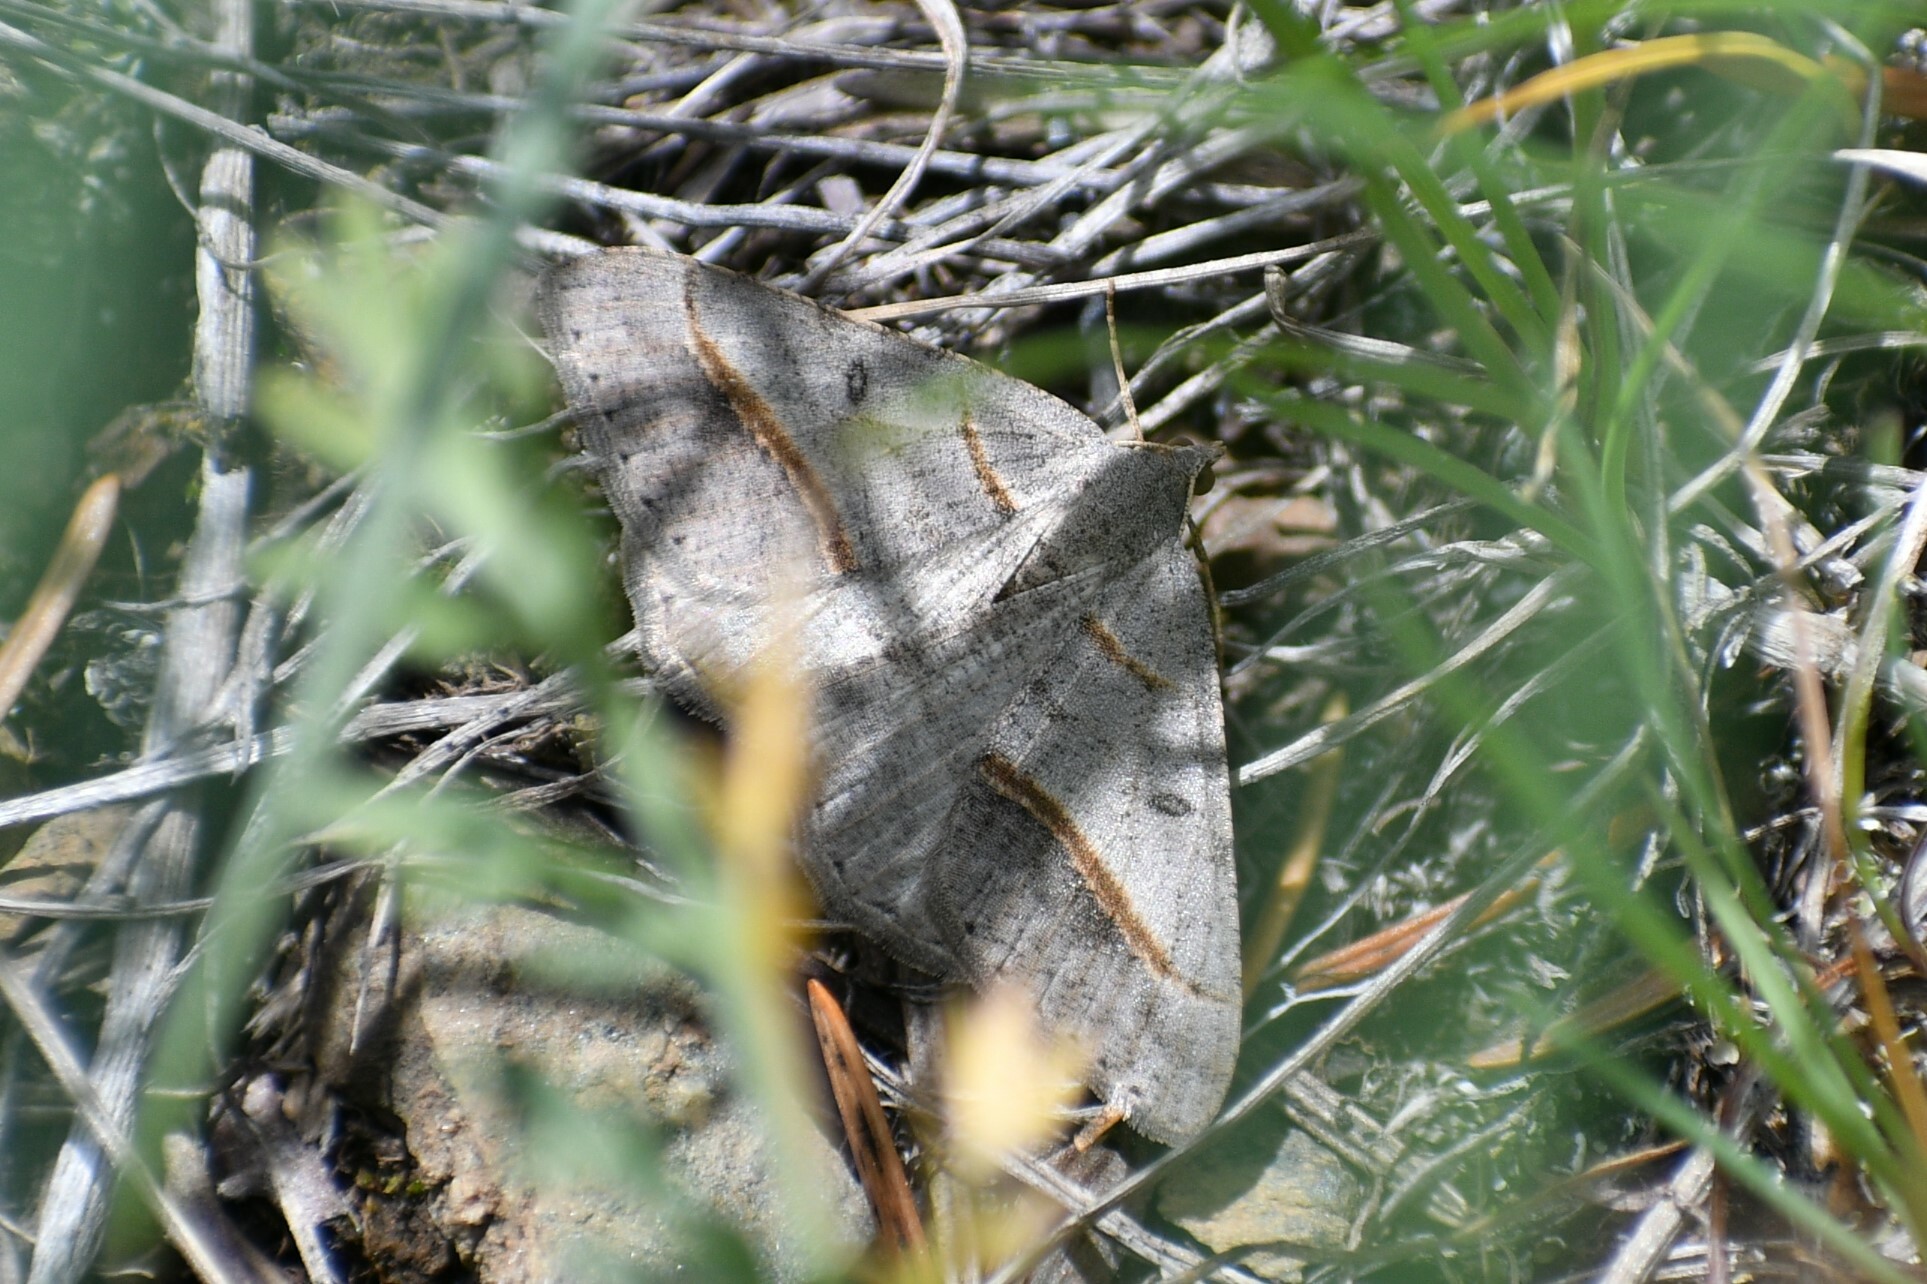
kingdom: Animalia
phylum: Arthropoda
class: Insecta
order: Lepidoptera
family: Geometridae
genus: Digrammia
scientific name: Digrammia neptaria
